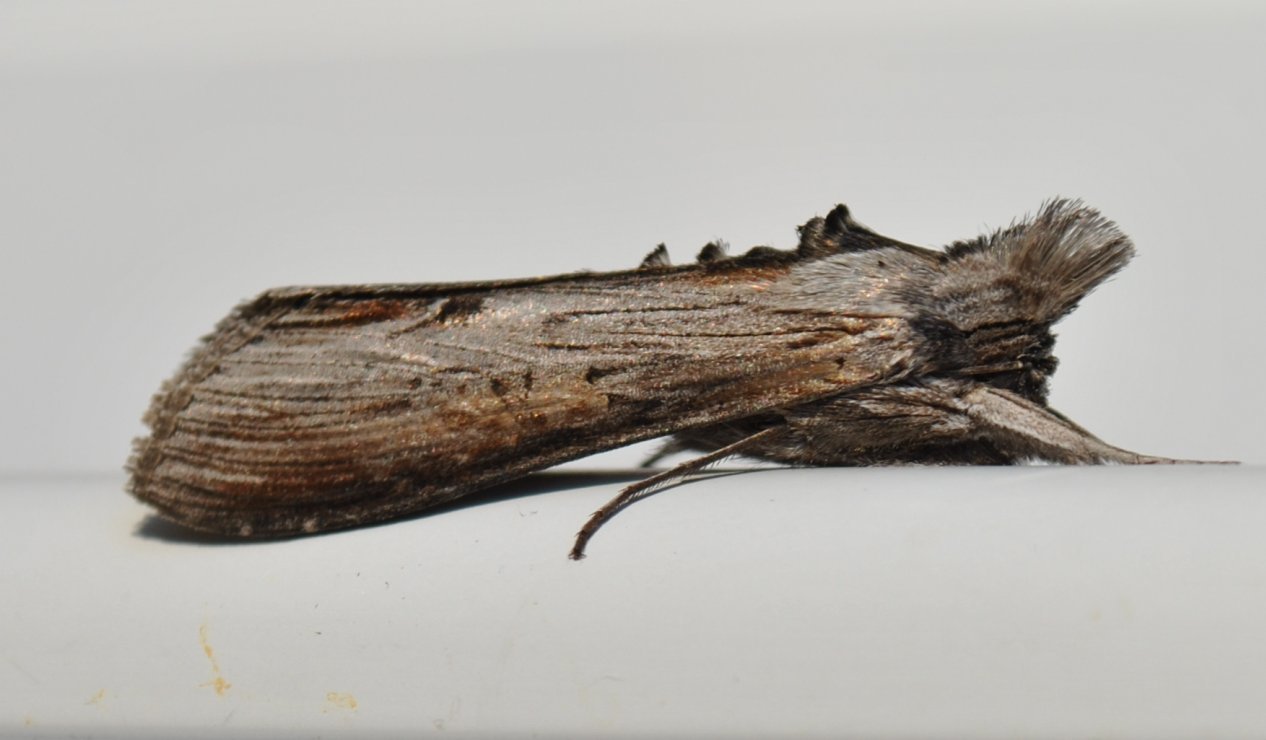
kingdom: Animalia
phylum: Arthropoda
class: Insecta
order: Lepidoptera
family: Noctuidae
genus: Cucullia
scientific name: Cucullia asteroides
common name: Asteroid moth
